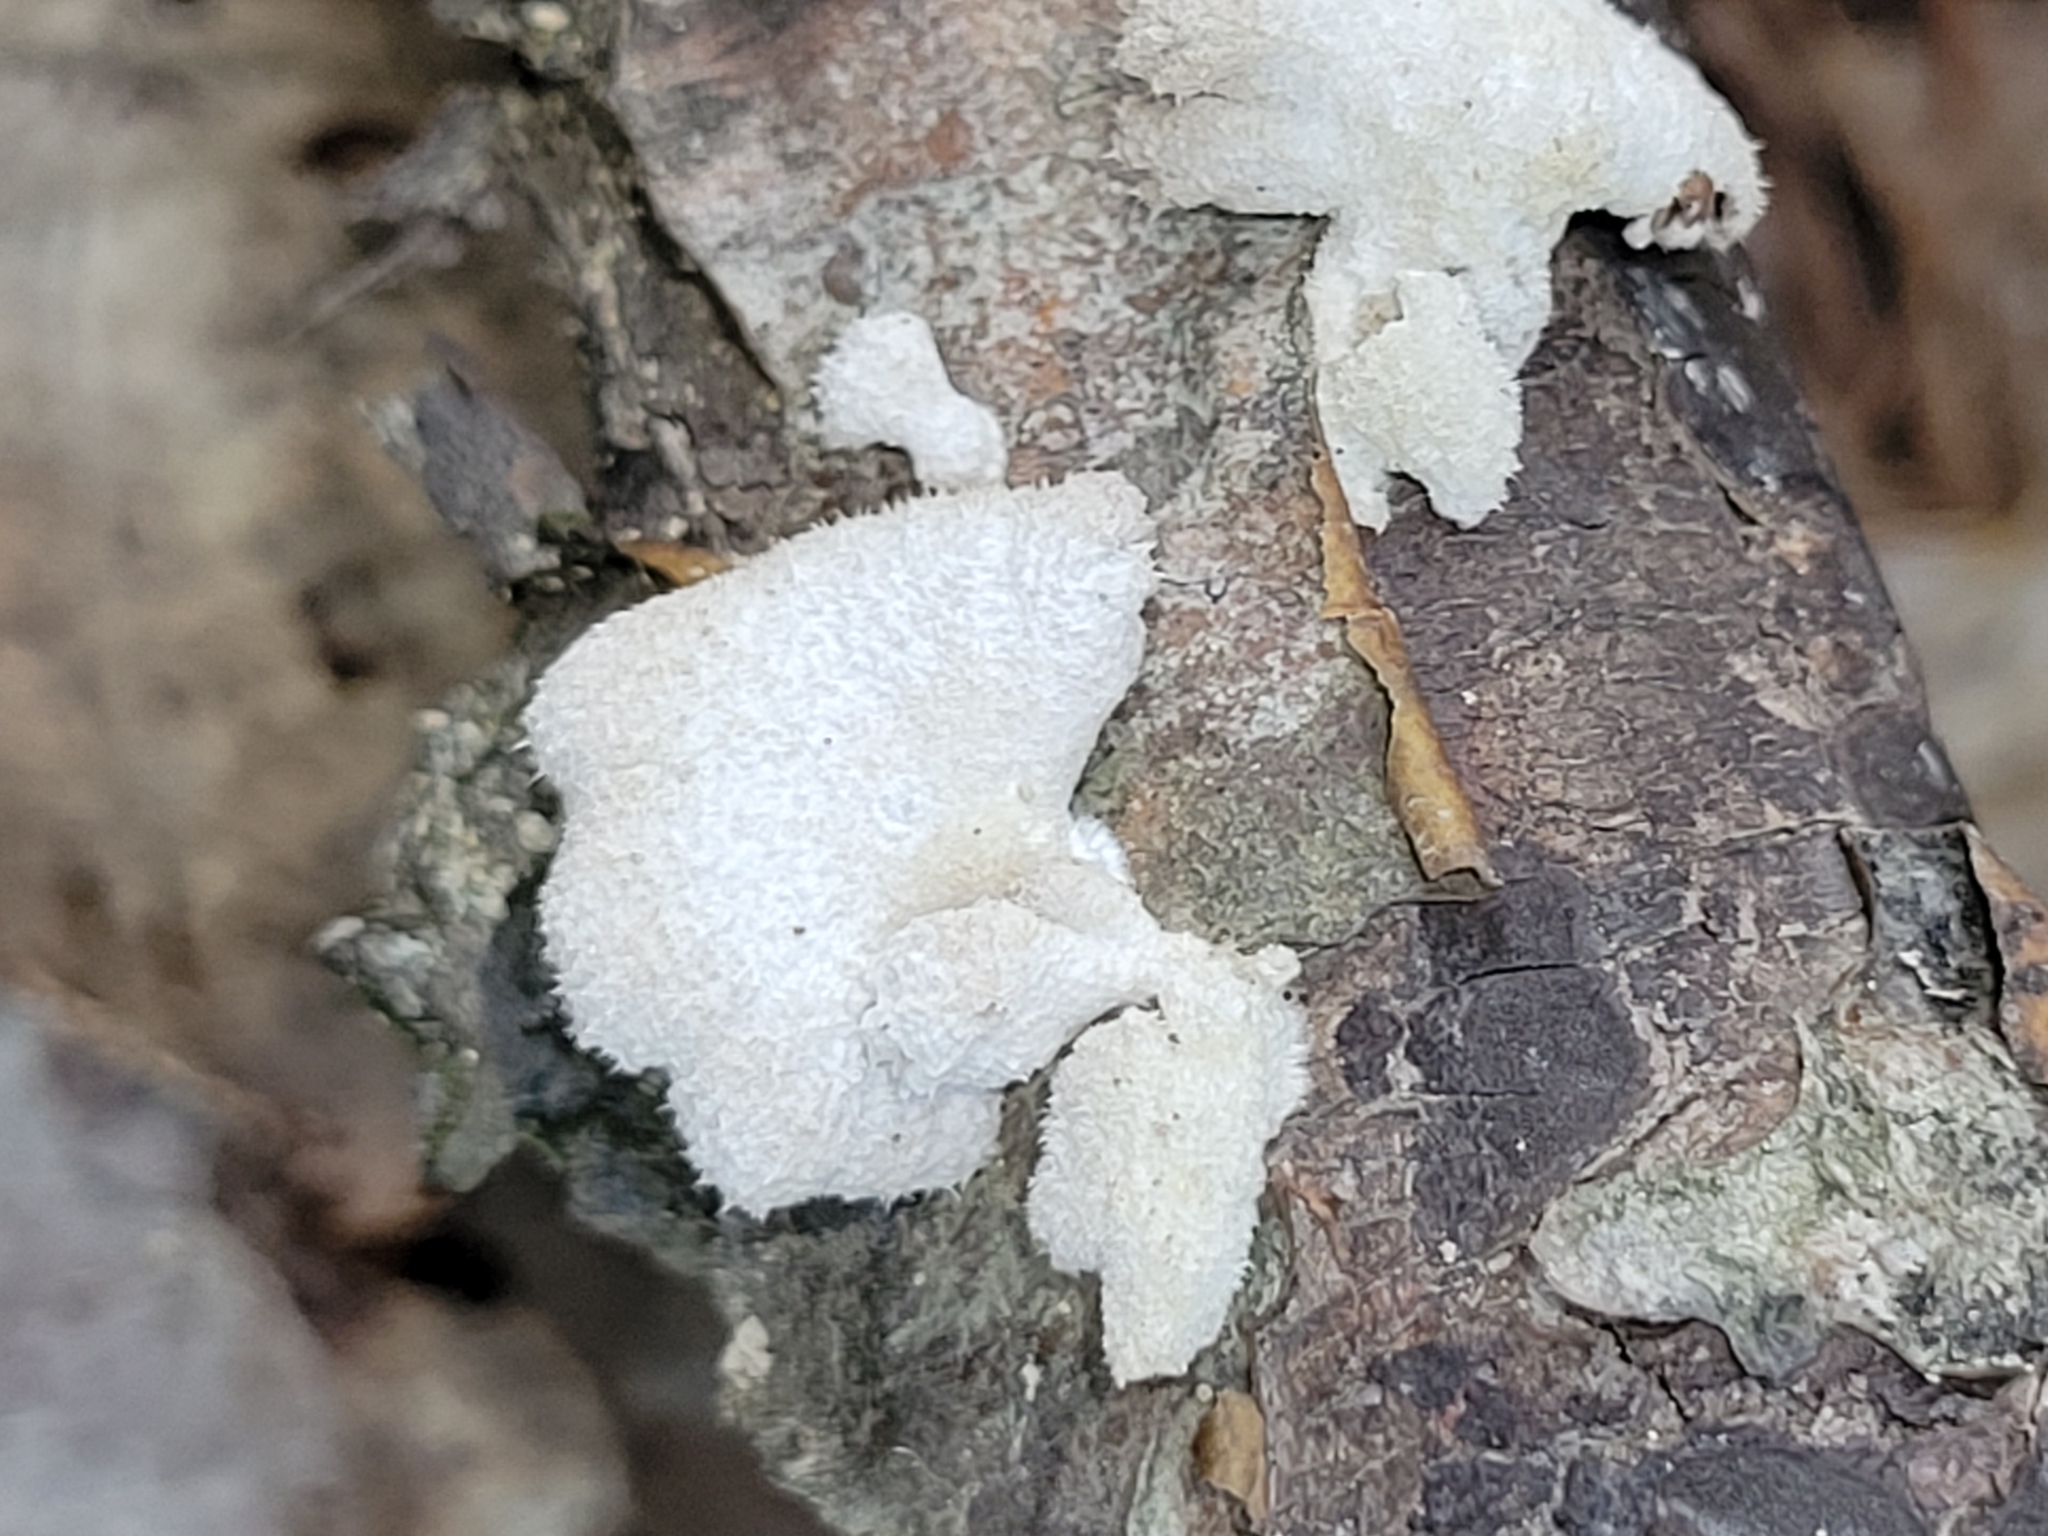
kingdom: Fungi
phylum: Basidiomycota
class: Agaricomycetes
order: Agaricales
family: Schizophyllaceae
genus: Schizophyllum
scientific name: Schizophyllum commune
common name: Common porecrust
